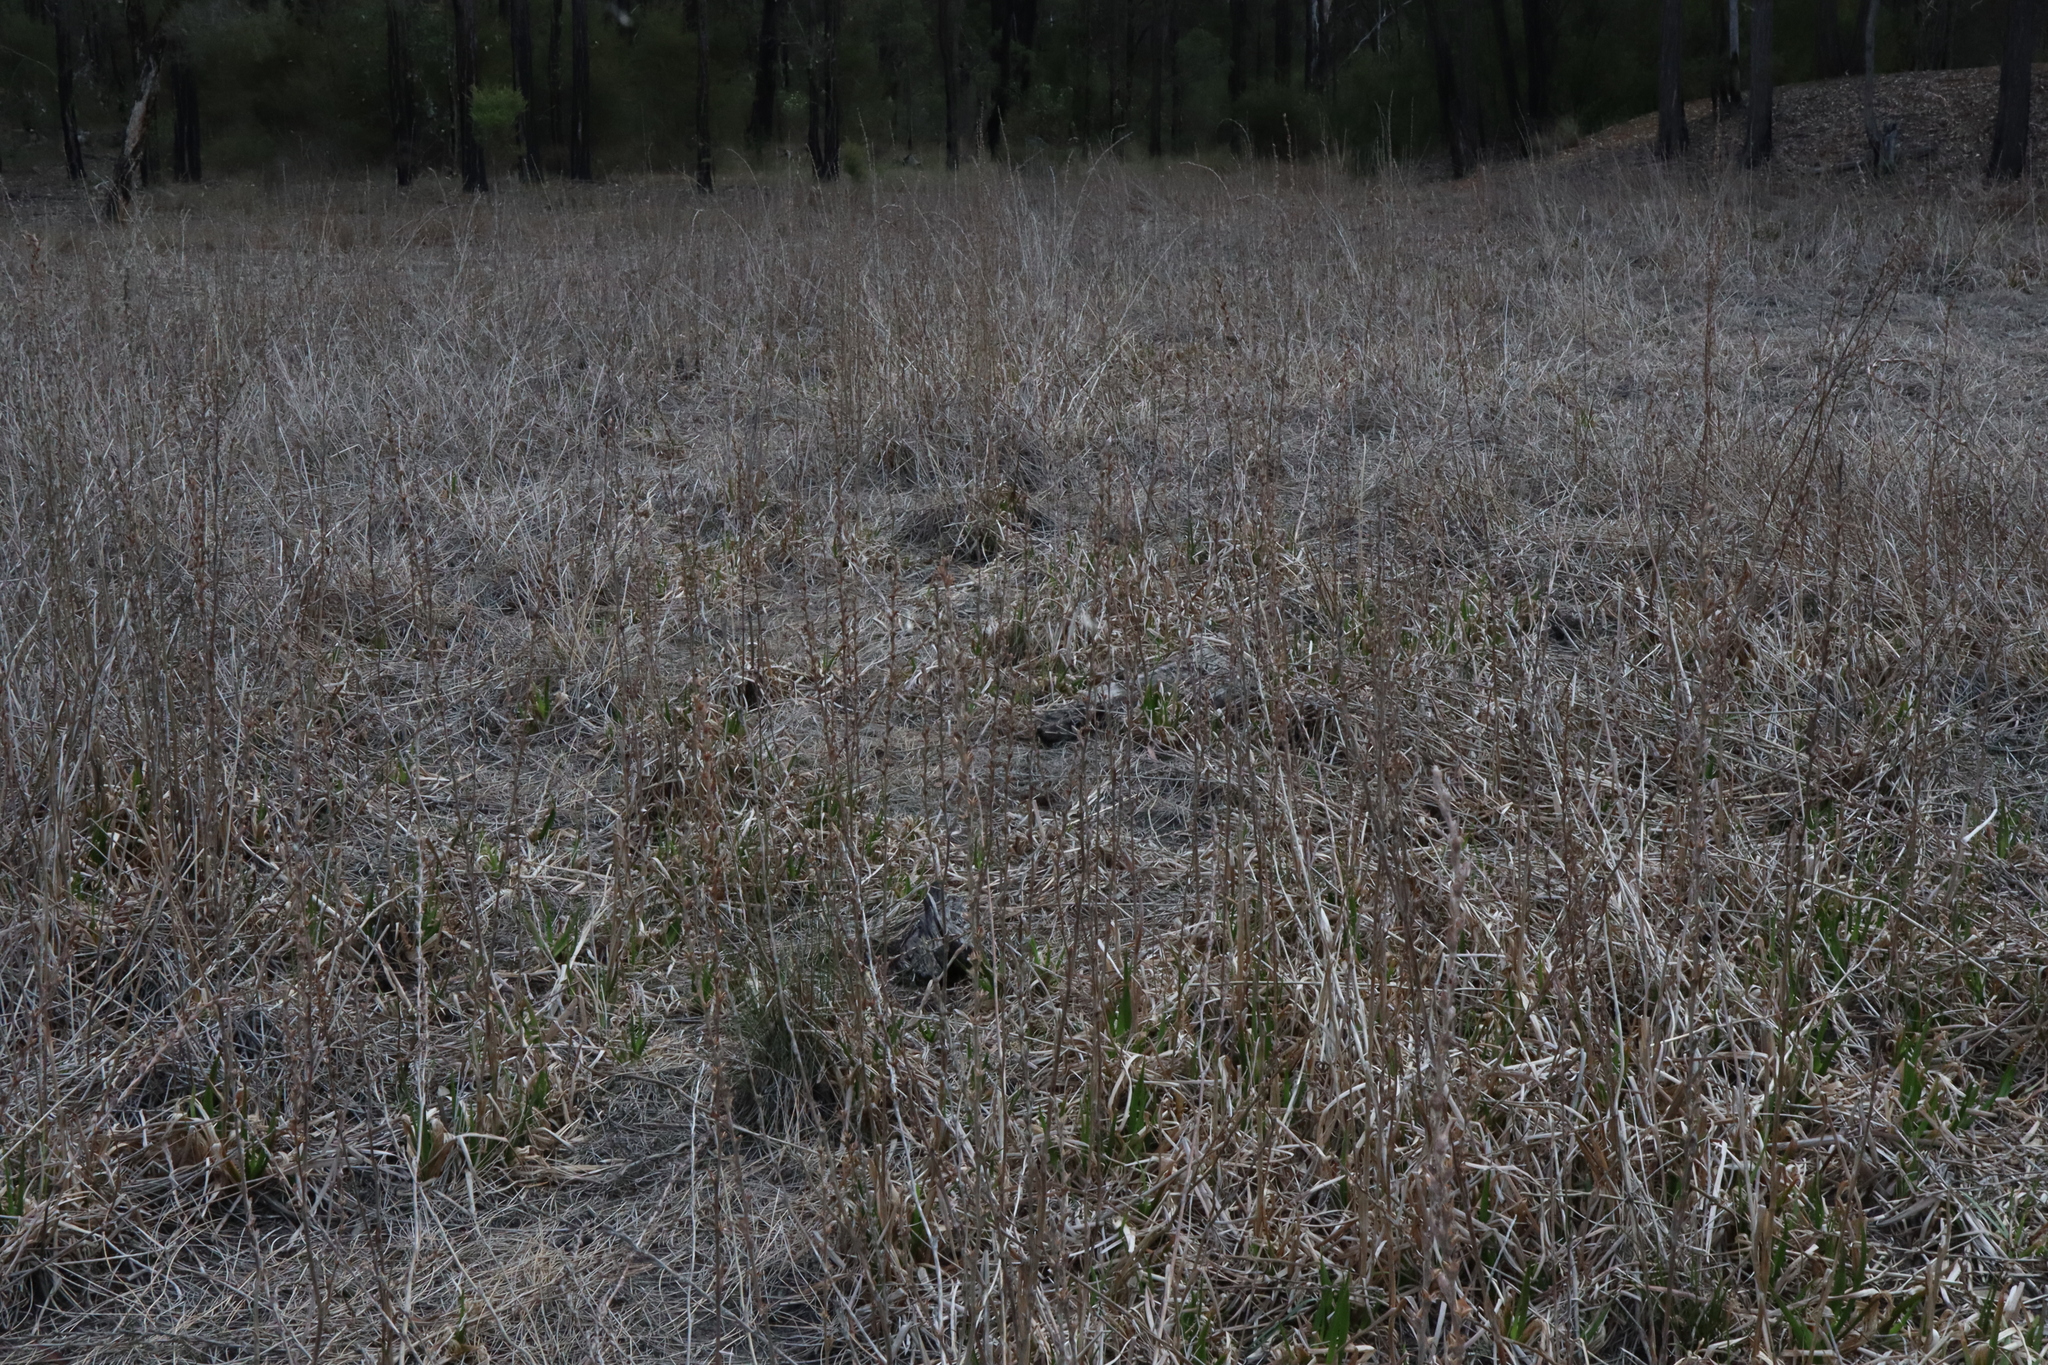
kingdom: Plantae
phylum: Tracheophyta
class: Liliopsida
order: Commelinales
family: Philydraceae
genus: Philydrum
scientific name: Philydrum lanuginosum
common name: Woolly frog's mouth
